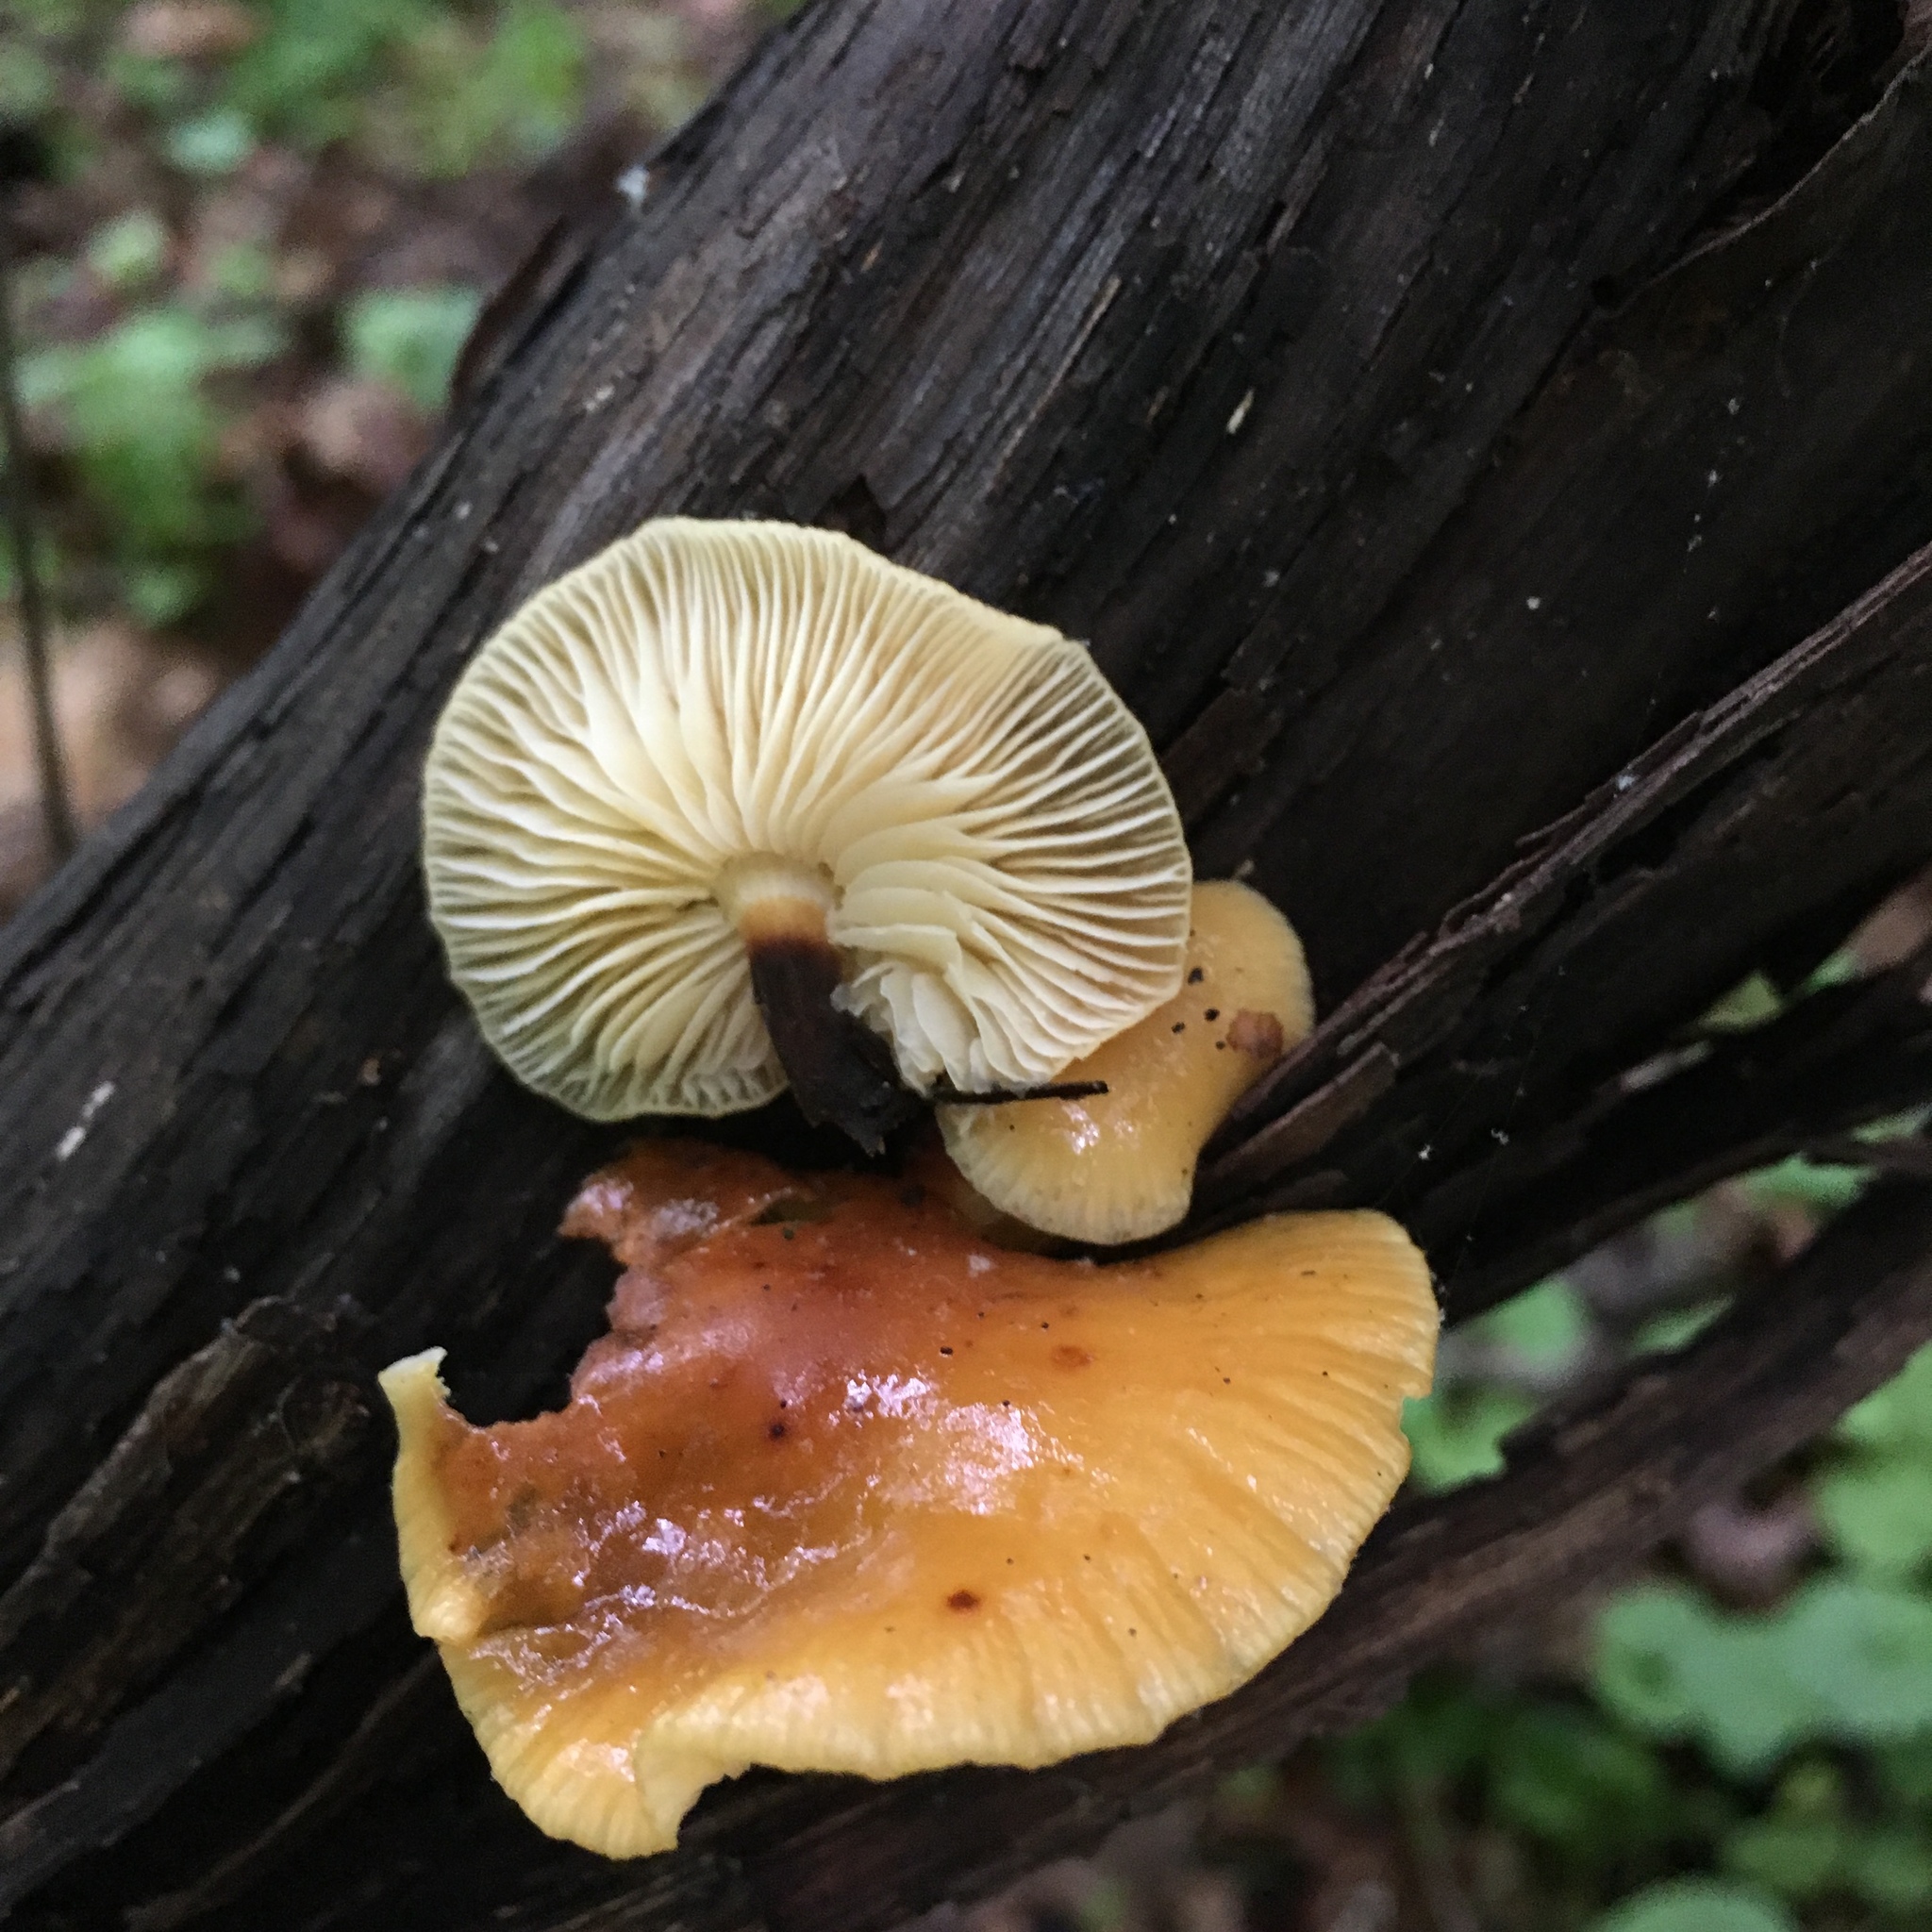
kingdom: Fungi
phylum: Basidiomycota
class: Agaricomycetes
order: Agaricales
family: Physalacriaceae
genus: Flammulina
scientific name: Flammulina velutipes
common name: Velvet shank
